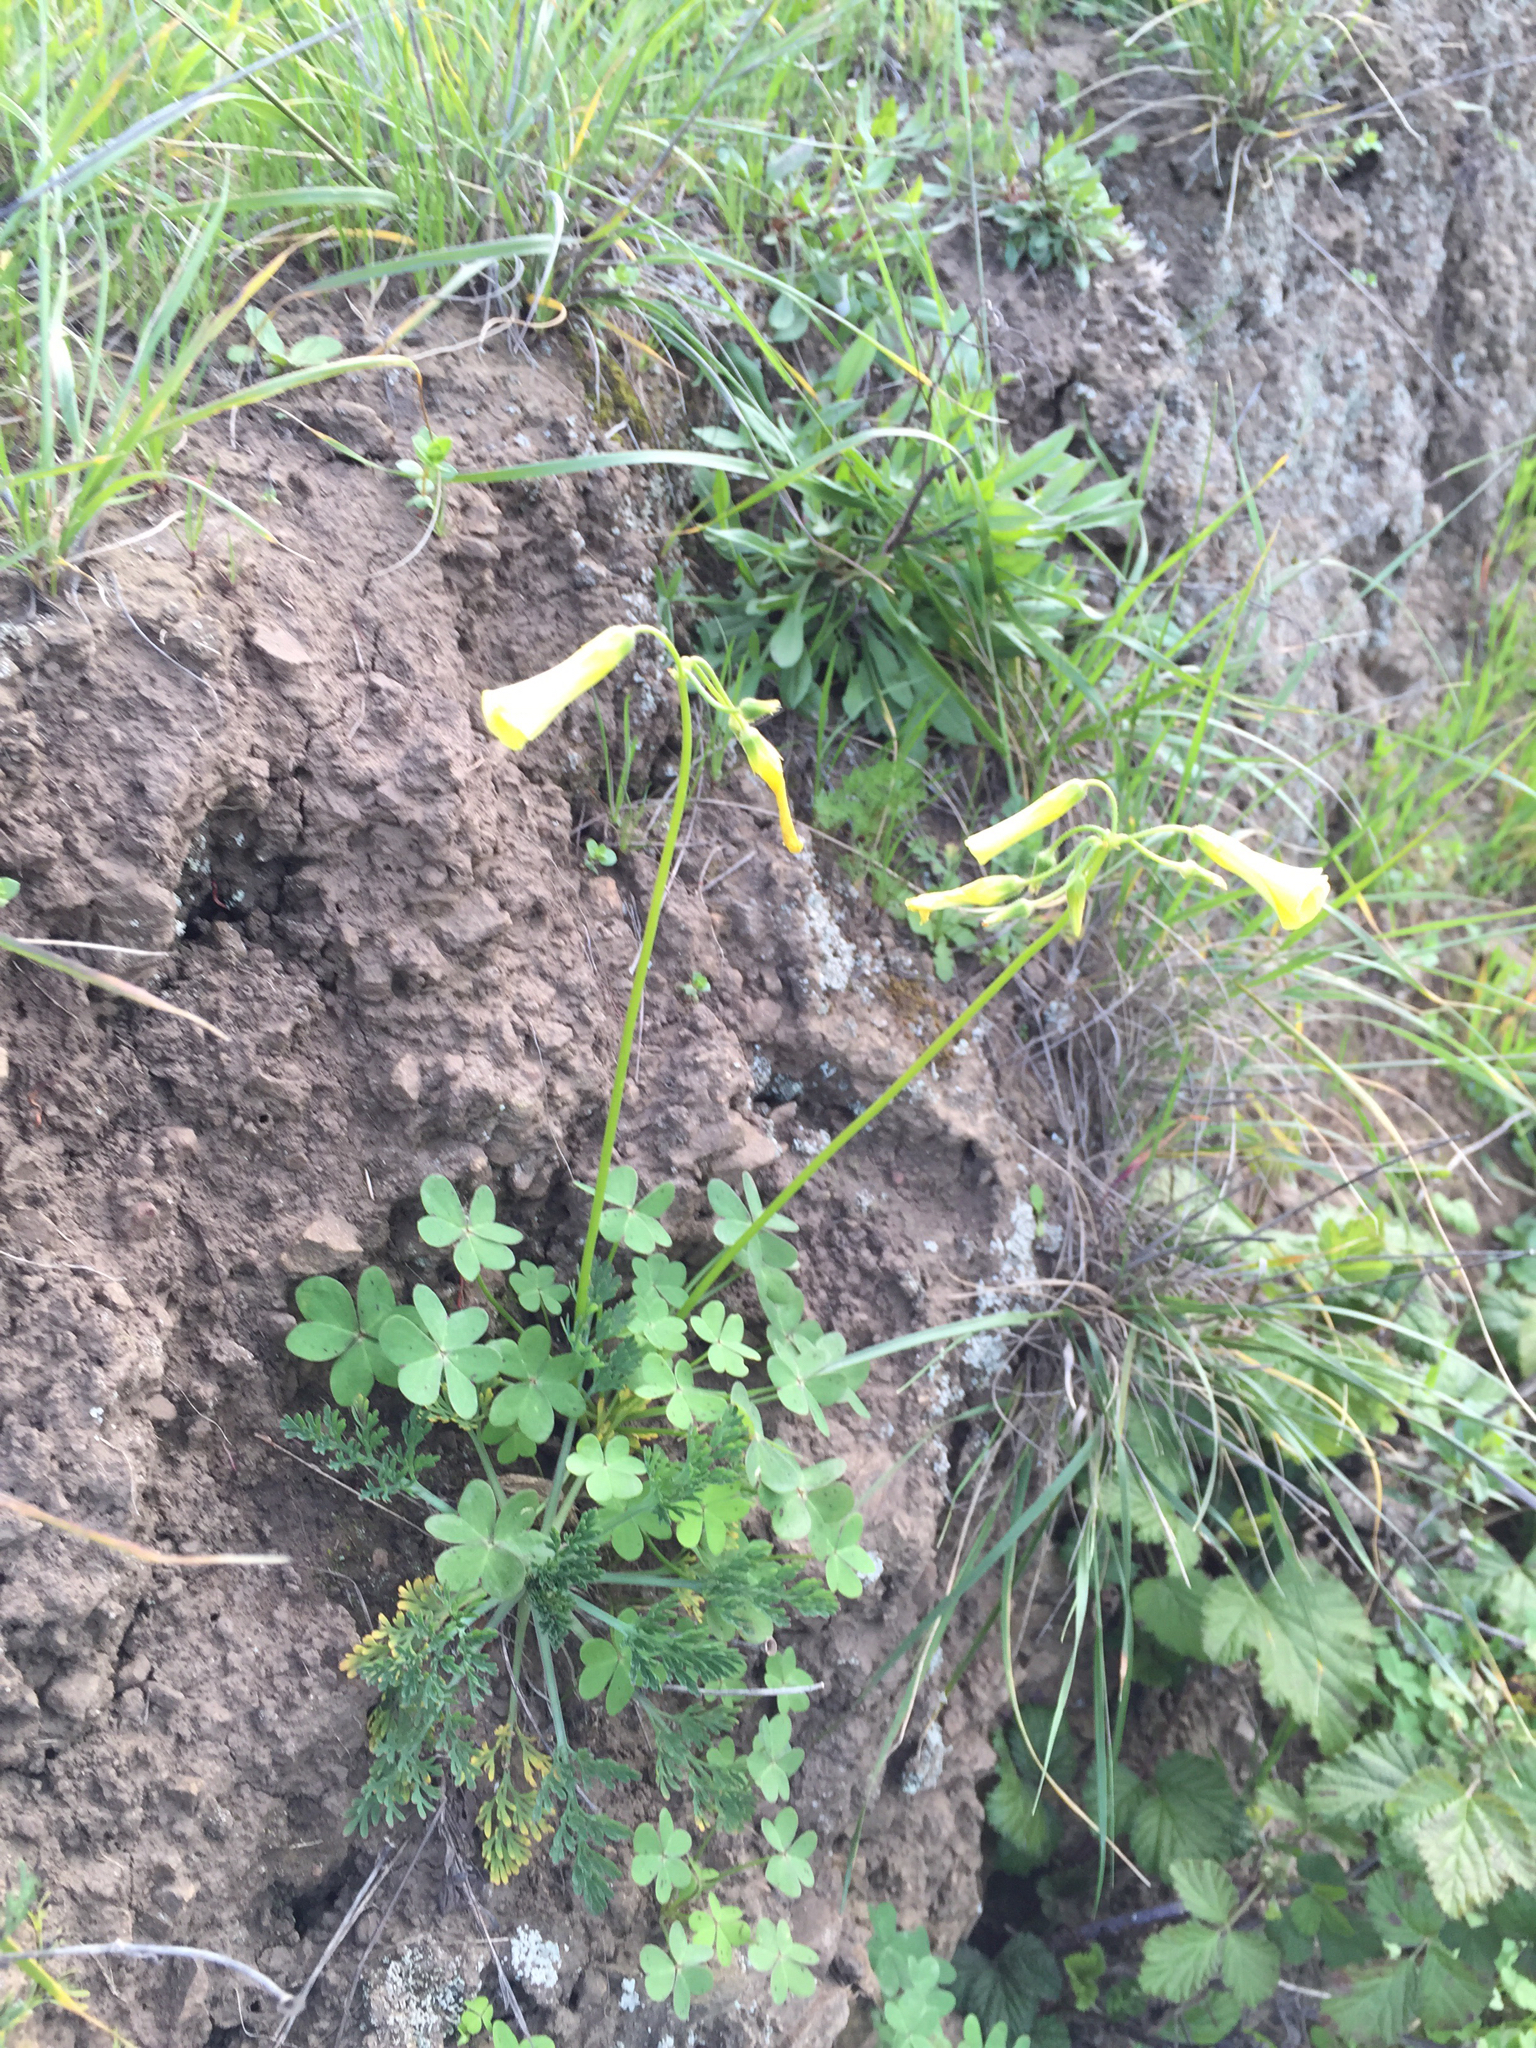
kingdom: Plantae
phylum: Tracheophyta
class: Magnoliopsida
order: Oxalidales
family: Oxalidaceae
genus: Oxalis
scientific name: Oxalis pes-caprae
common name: Bermuda-buttercup
